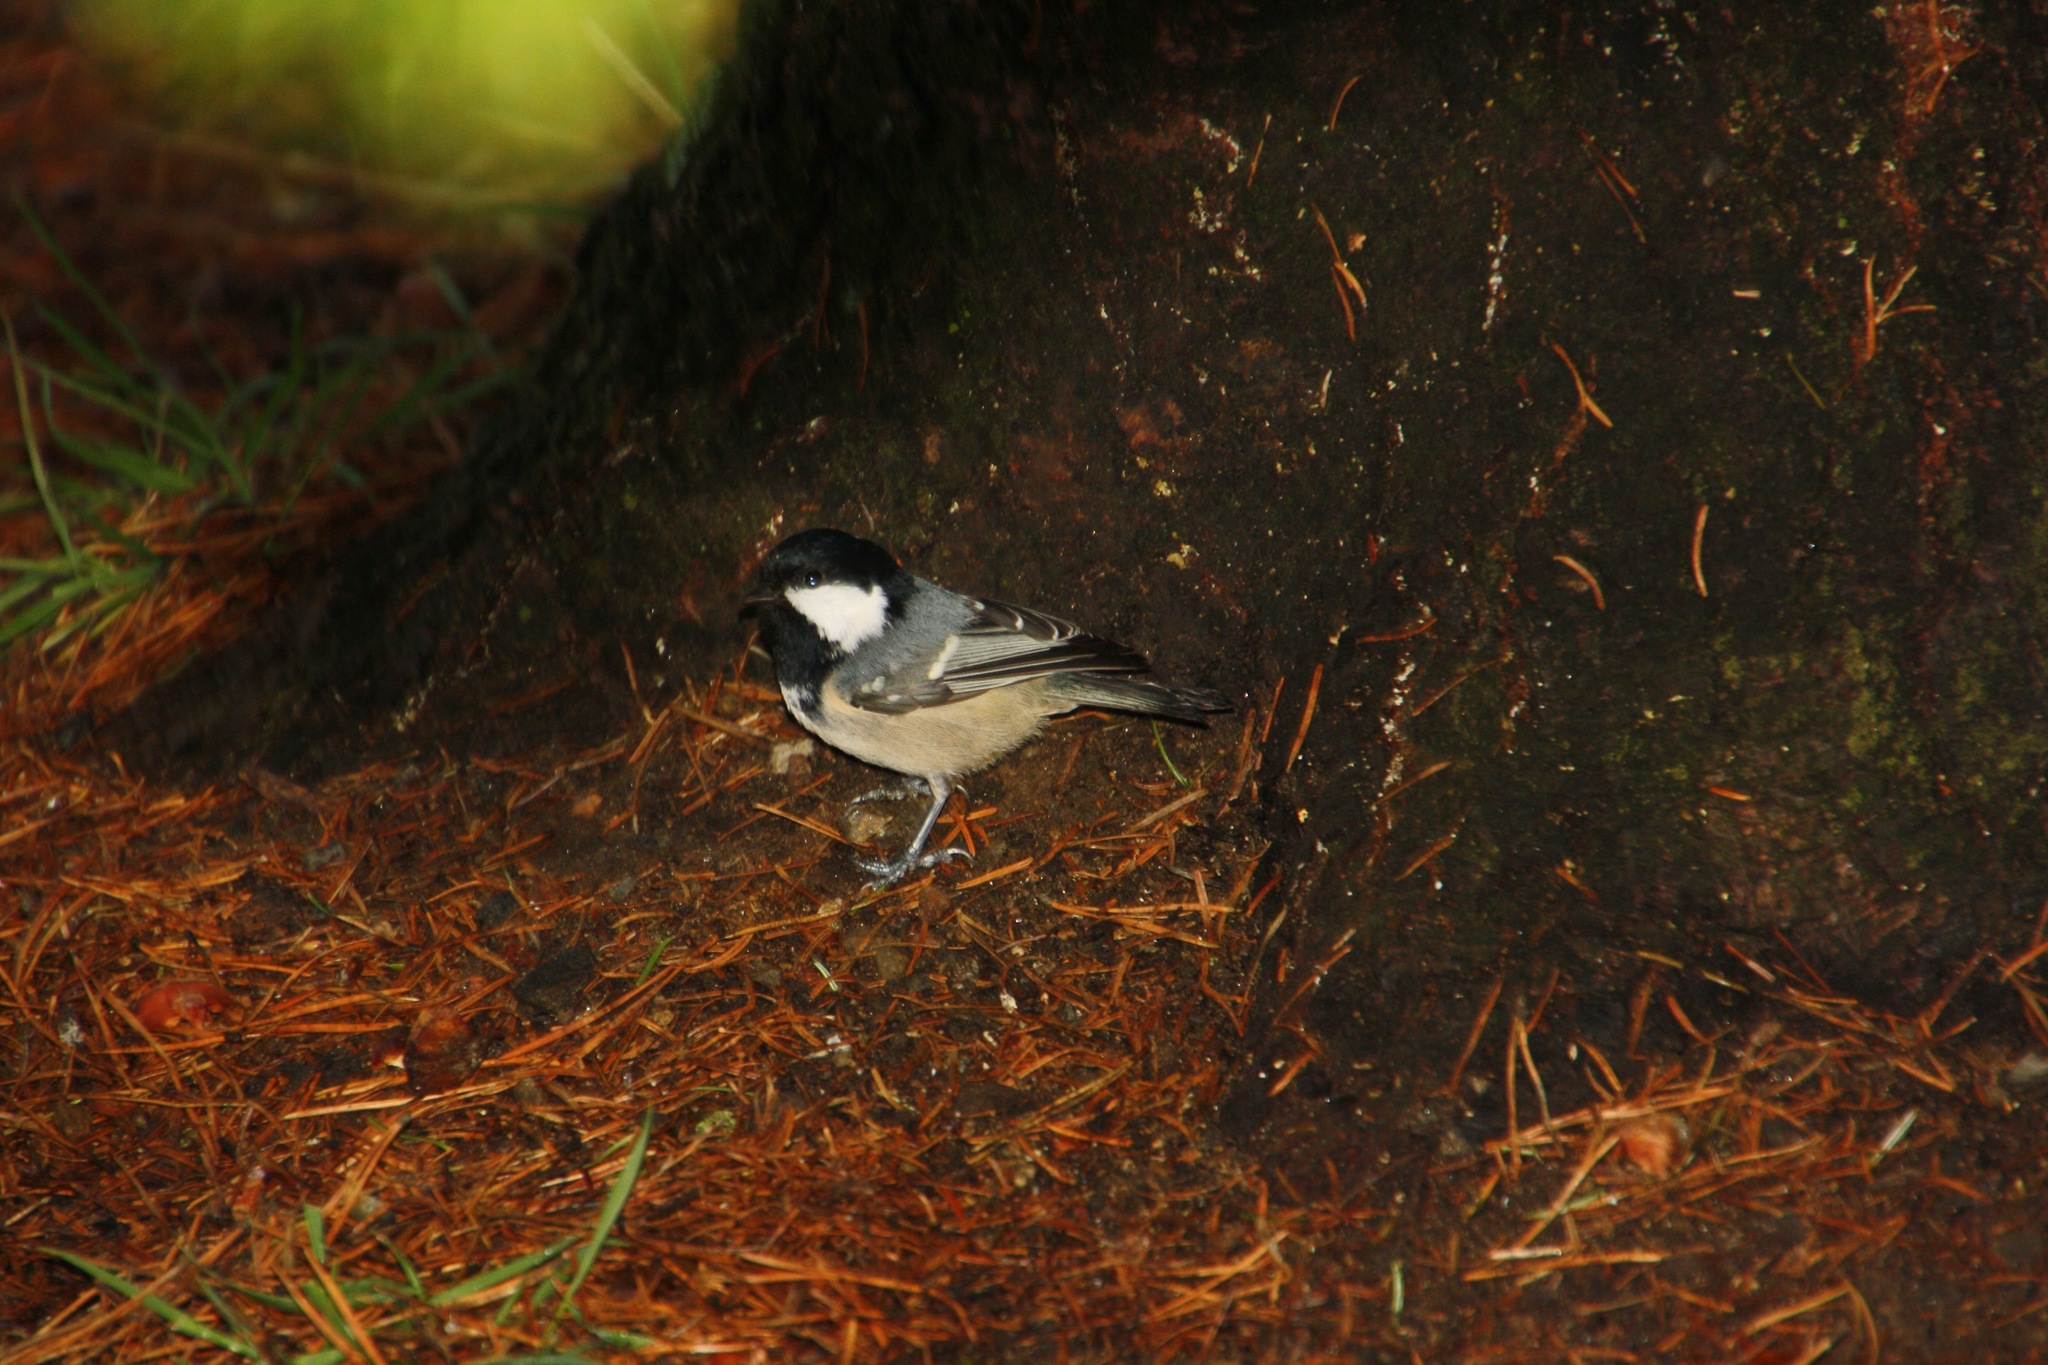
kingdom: Animalia
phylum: Chordata
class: Aves
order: Passeriformes
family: Paridae
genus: Periparus
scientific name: Periparus ater
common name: Coal tit
